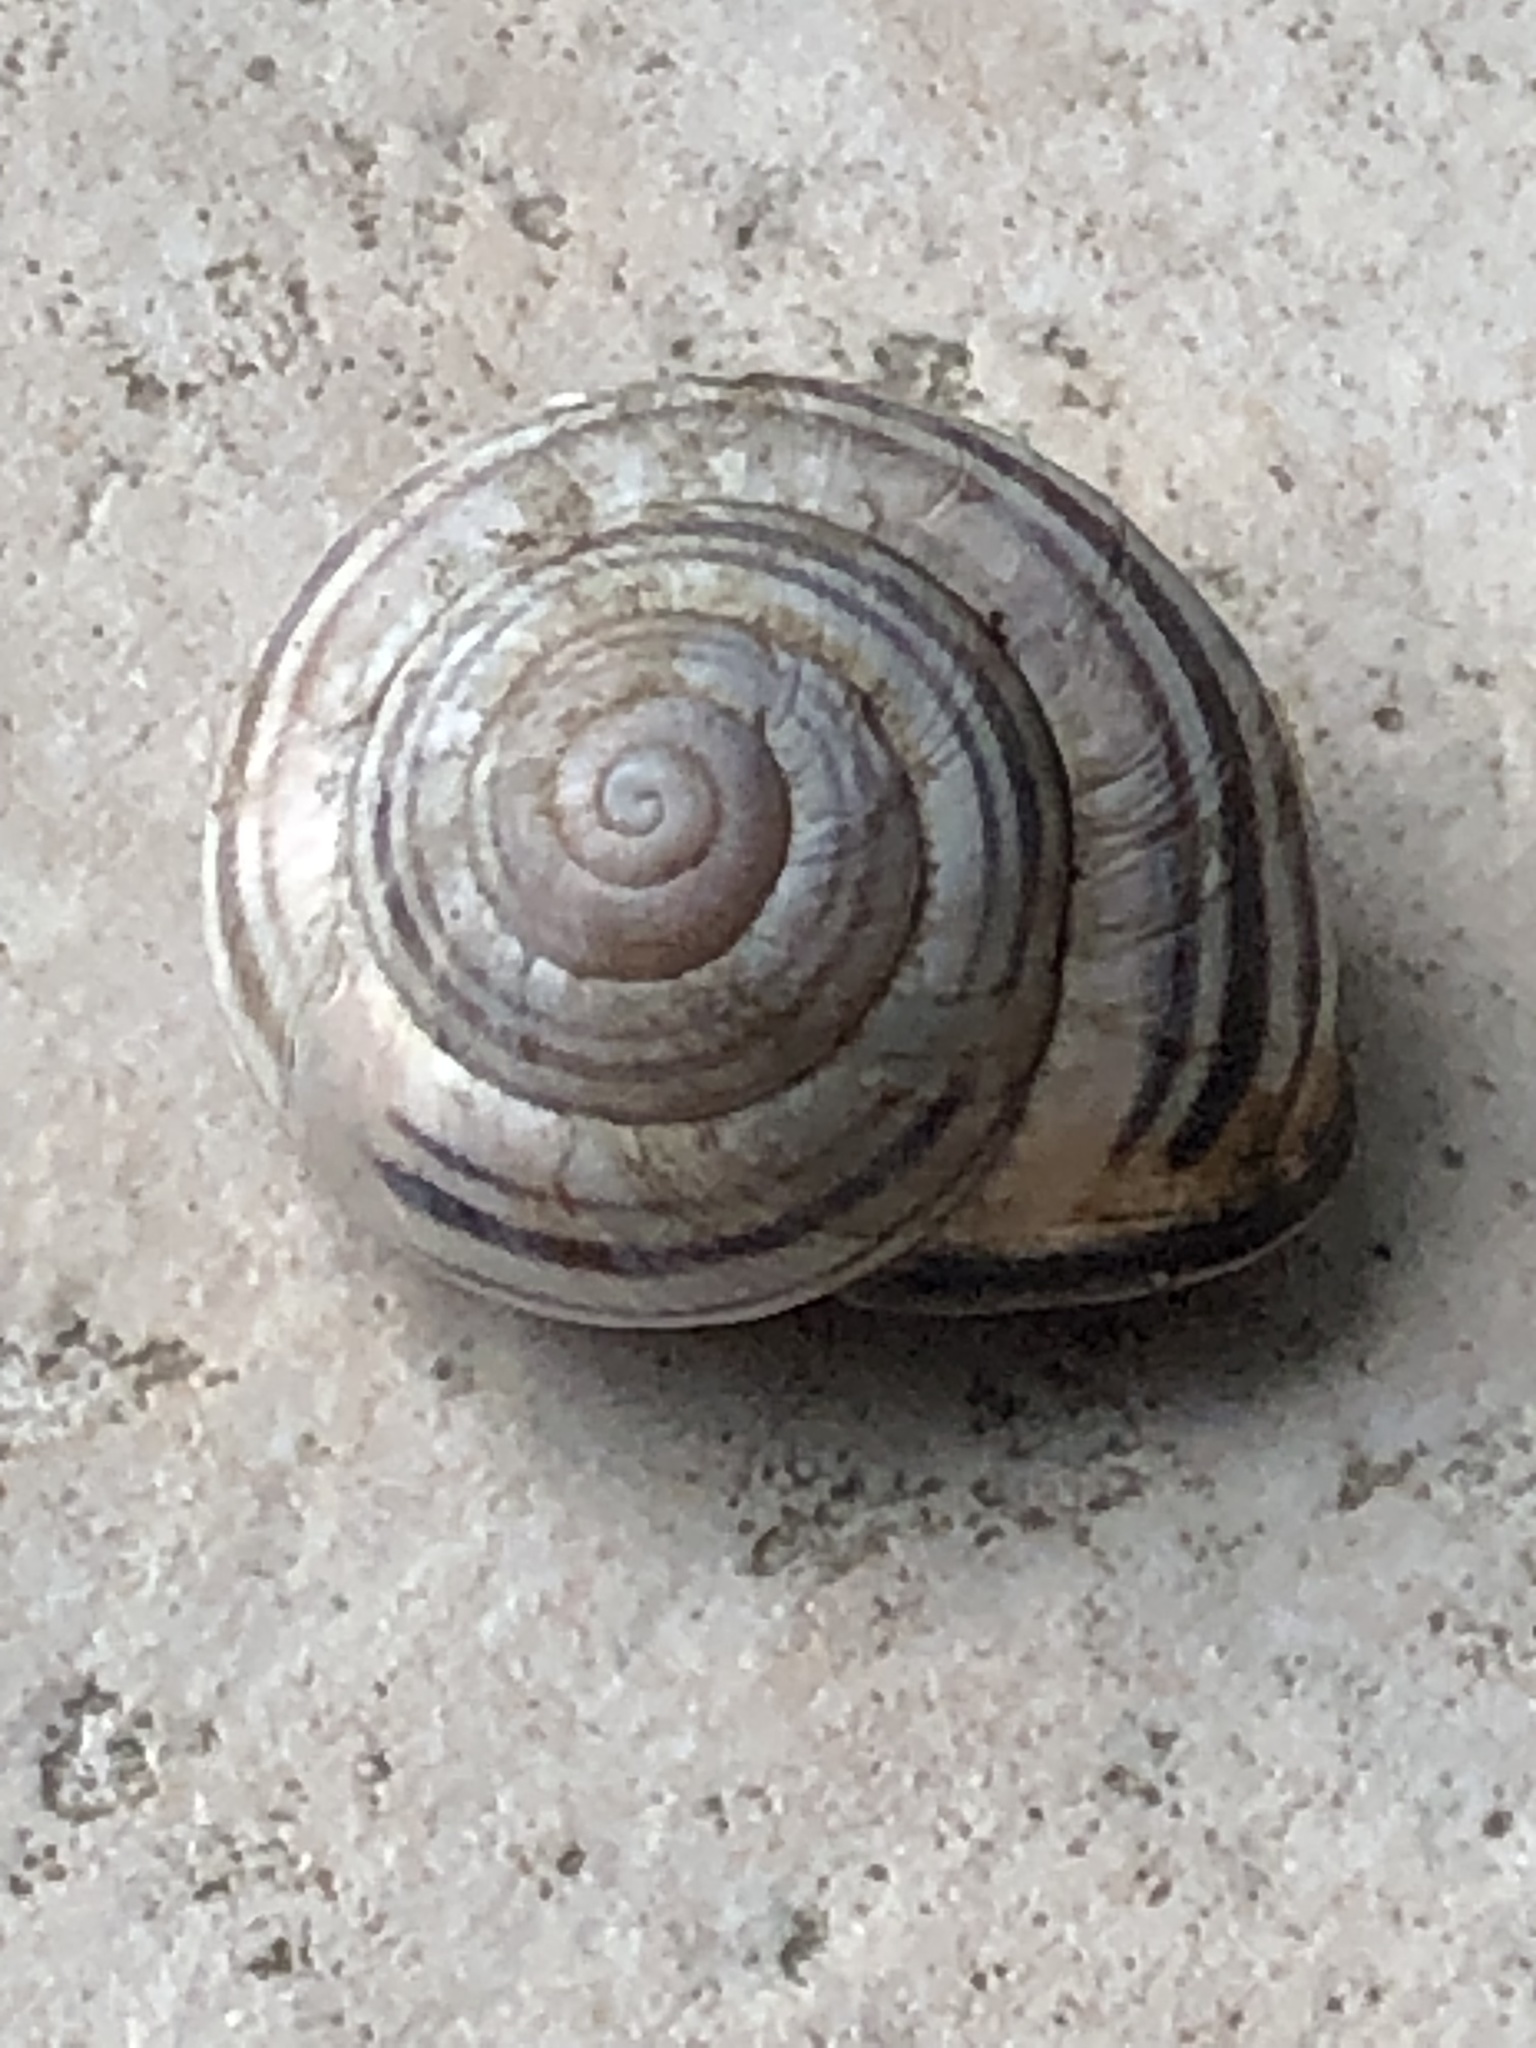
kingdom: Animalia
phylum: Mollusca
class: Gastropoda
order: Stylommatophora
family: Helicidae
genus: Cepaea
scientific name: Cepaea nemoralis
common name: Grovesnail
